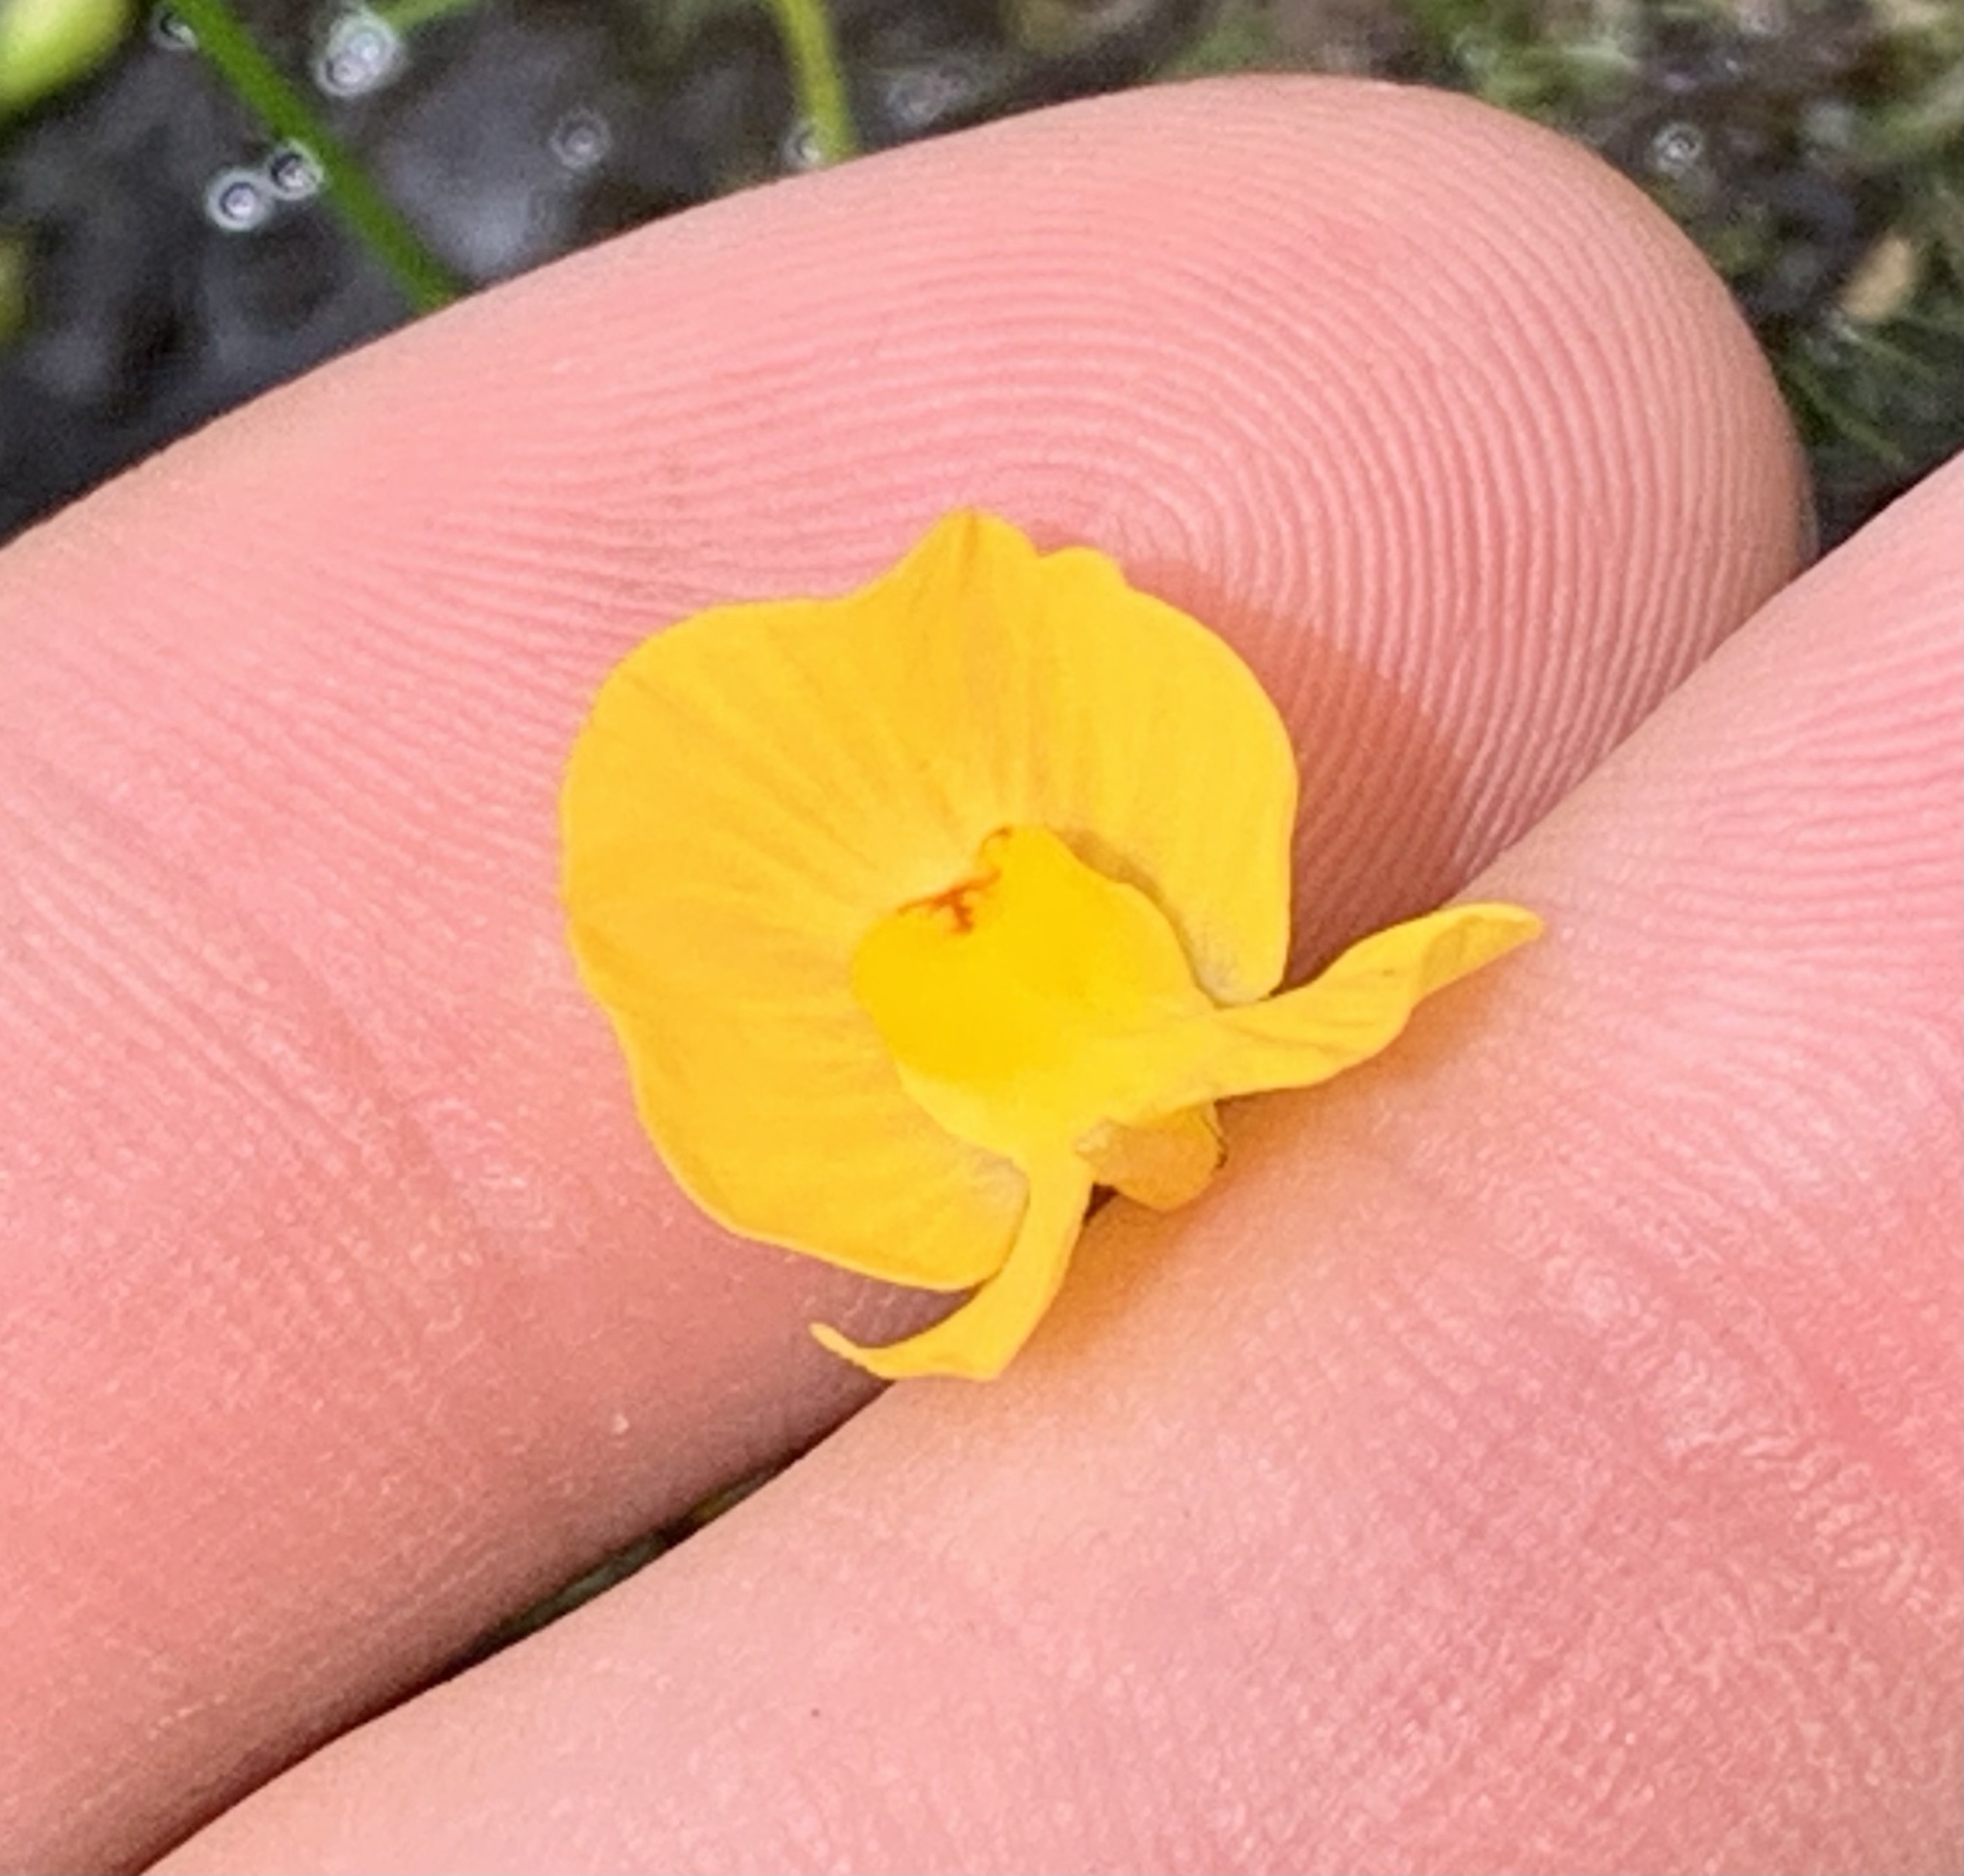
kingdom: Plantae
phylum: Tracheophyta
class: Magnoliopsida
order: Lamiales
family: Lentibulariaceae
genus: Utricularia
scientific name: Utricularia gibba
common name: Humped bladderwort
